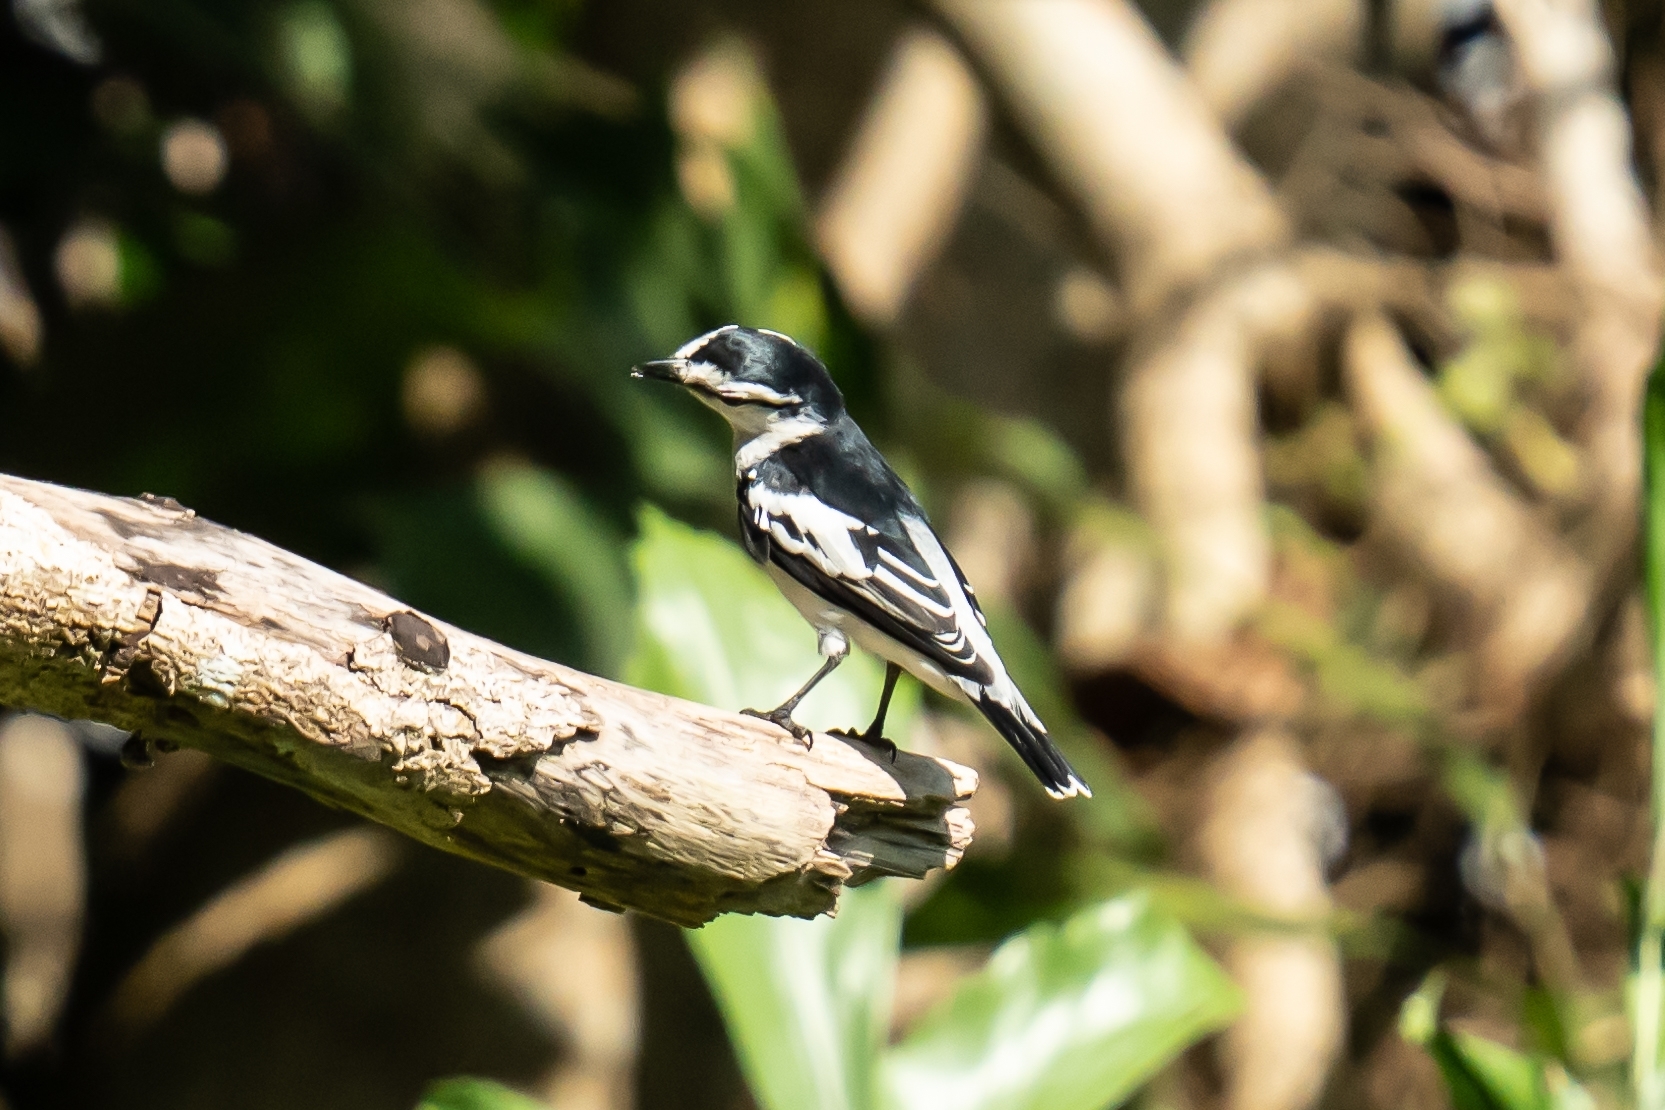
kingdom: Animalia
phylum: Chordata
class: Aves
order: Passeriformes
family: Campephagidae
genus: Lalage
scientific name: Lalage nigra
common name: Pied triller
